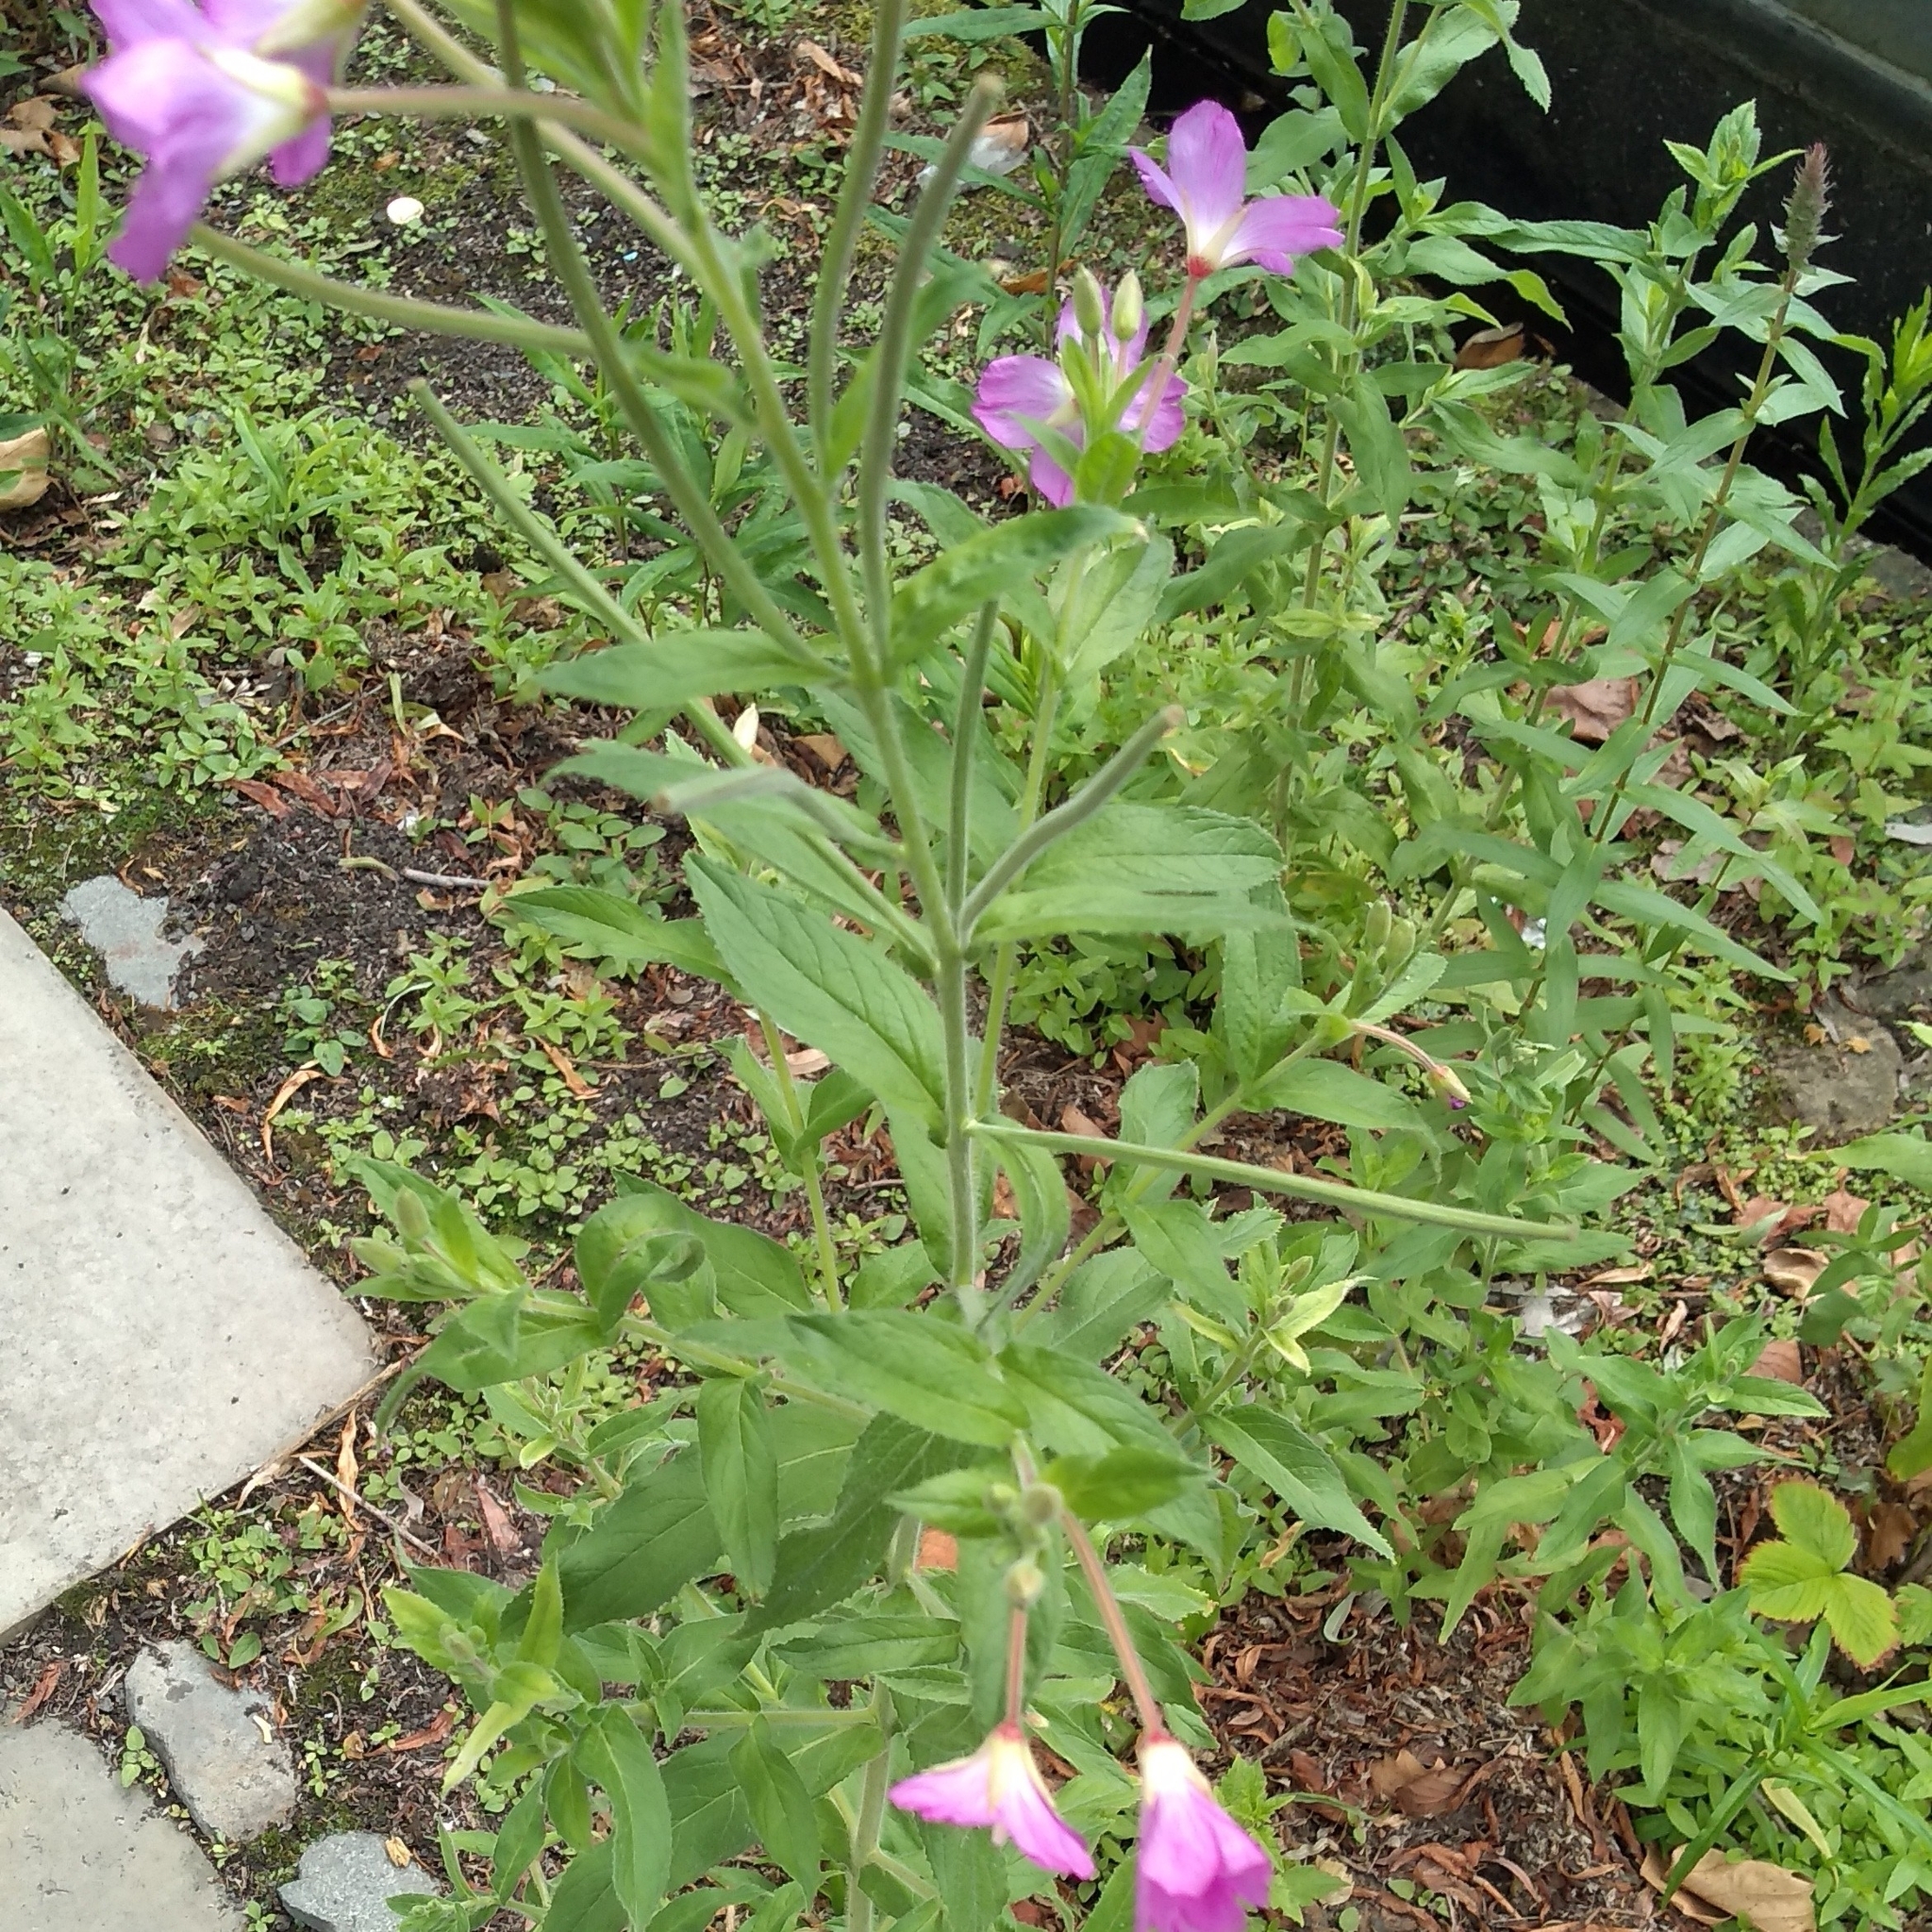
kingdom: Plantae
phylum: Tracheophyta
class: Magnoliopsida
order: Myrtales
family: Onagraceae
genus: Epilobium
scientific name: Epilobium hirsutum
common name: Great willowherb
